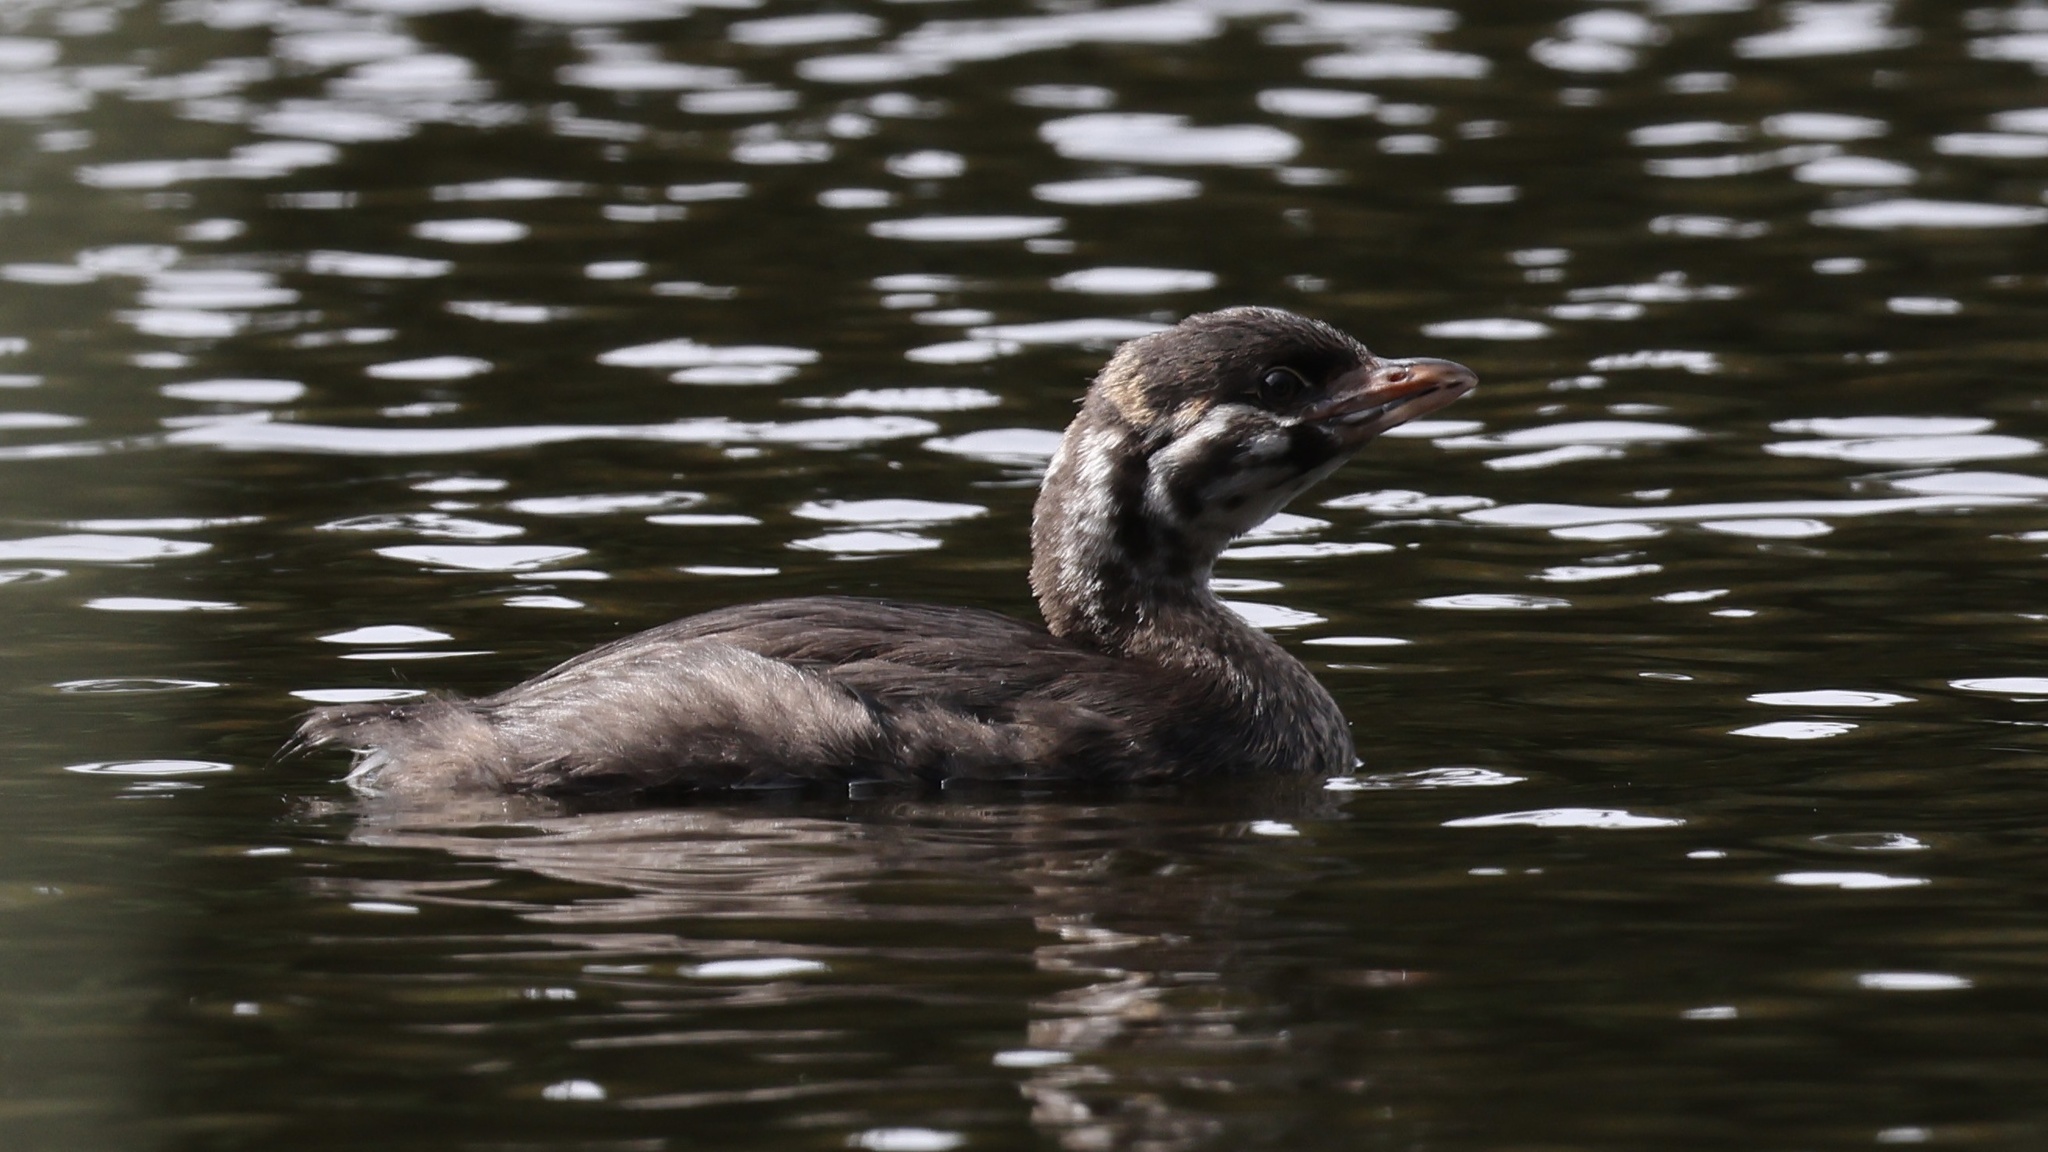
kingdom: Animalia
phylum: Chordata
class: Aves
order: Podicipediformes
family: Podicipedidae
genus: Podilymbus
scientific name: Podilymbus podiceps
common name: Pied-billed grebe
